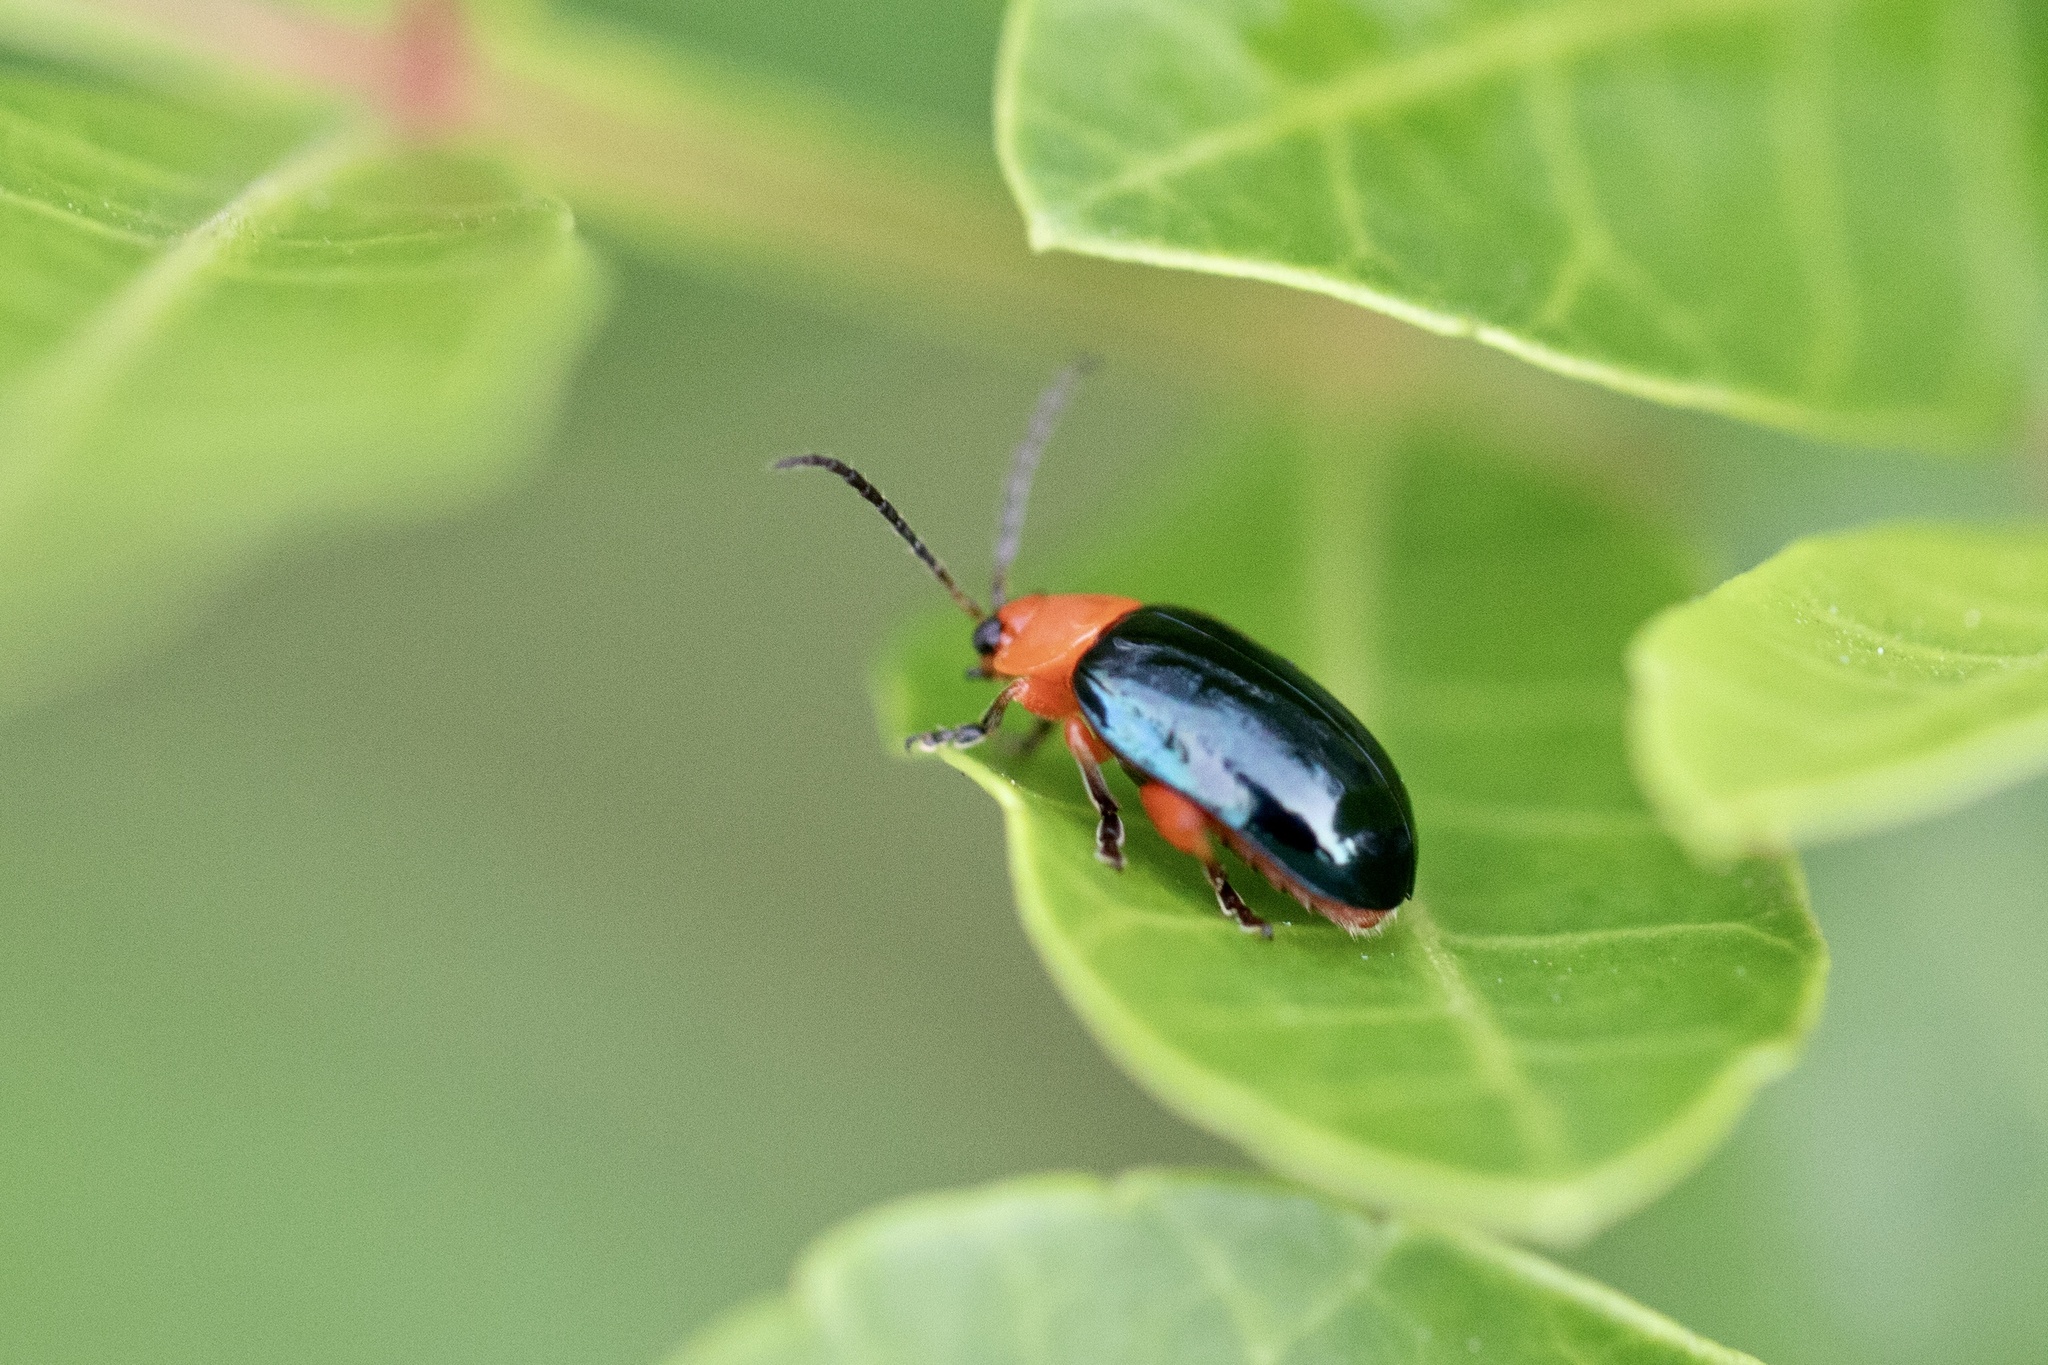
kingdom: Animalia
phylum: Arthropoda
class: Insecta
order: Coleoptera
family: Chrysomelidae
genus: Asphaera
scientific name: Asphaera lustrans
